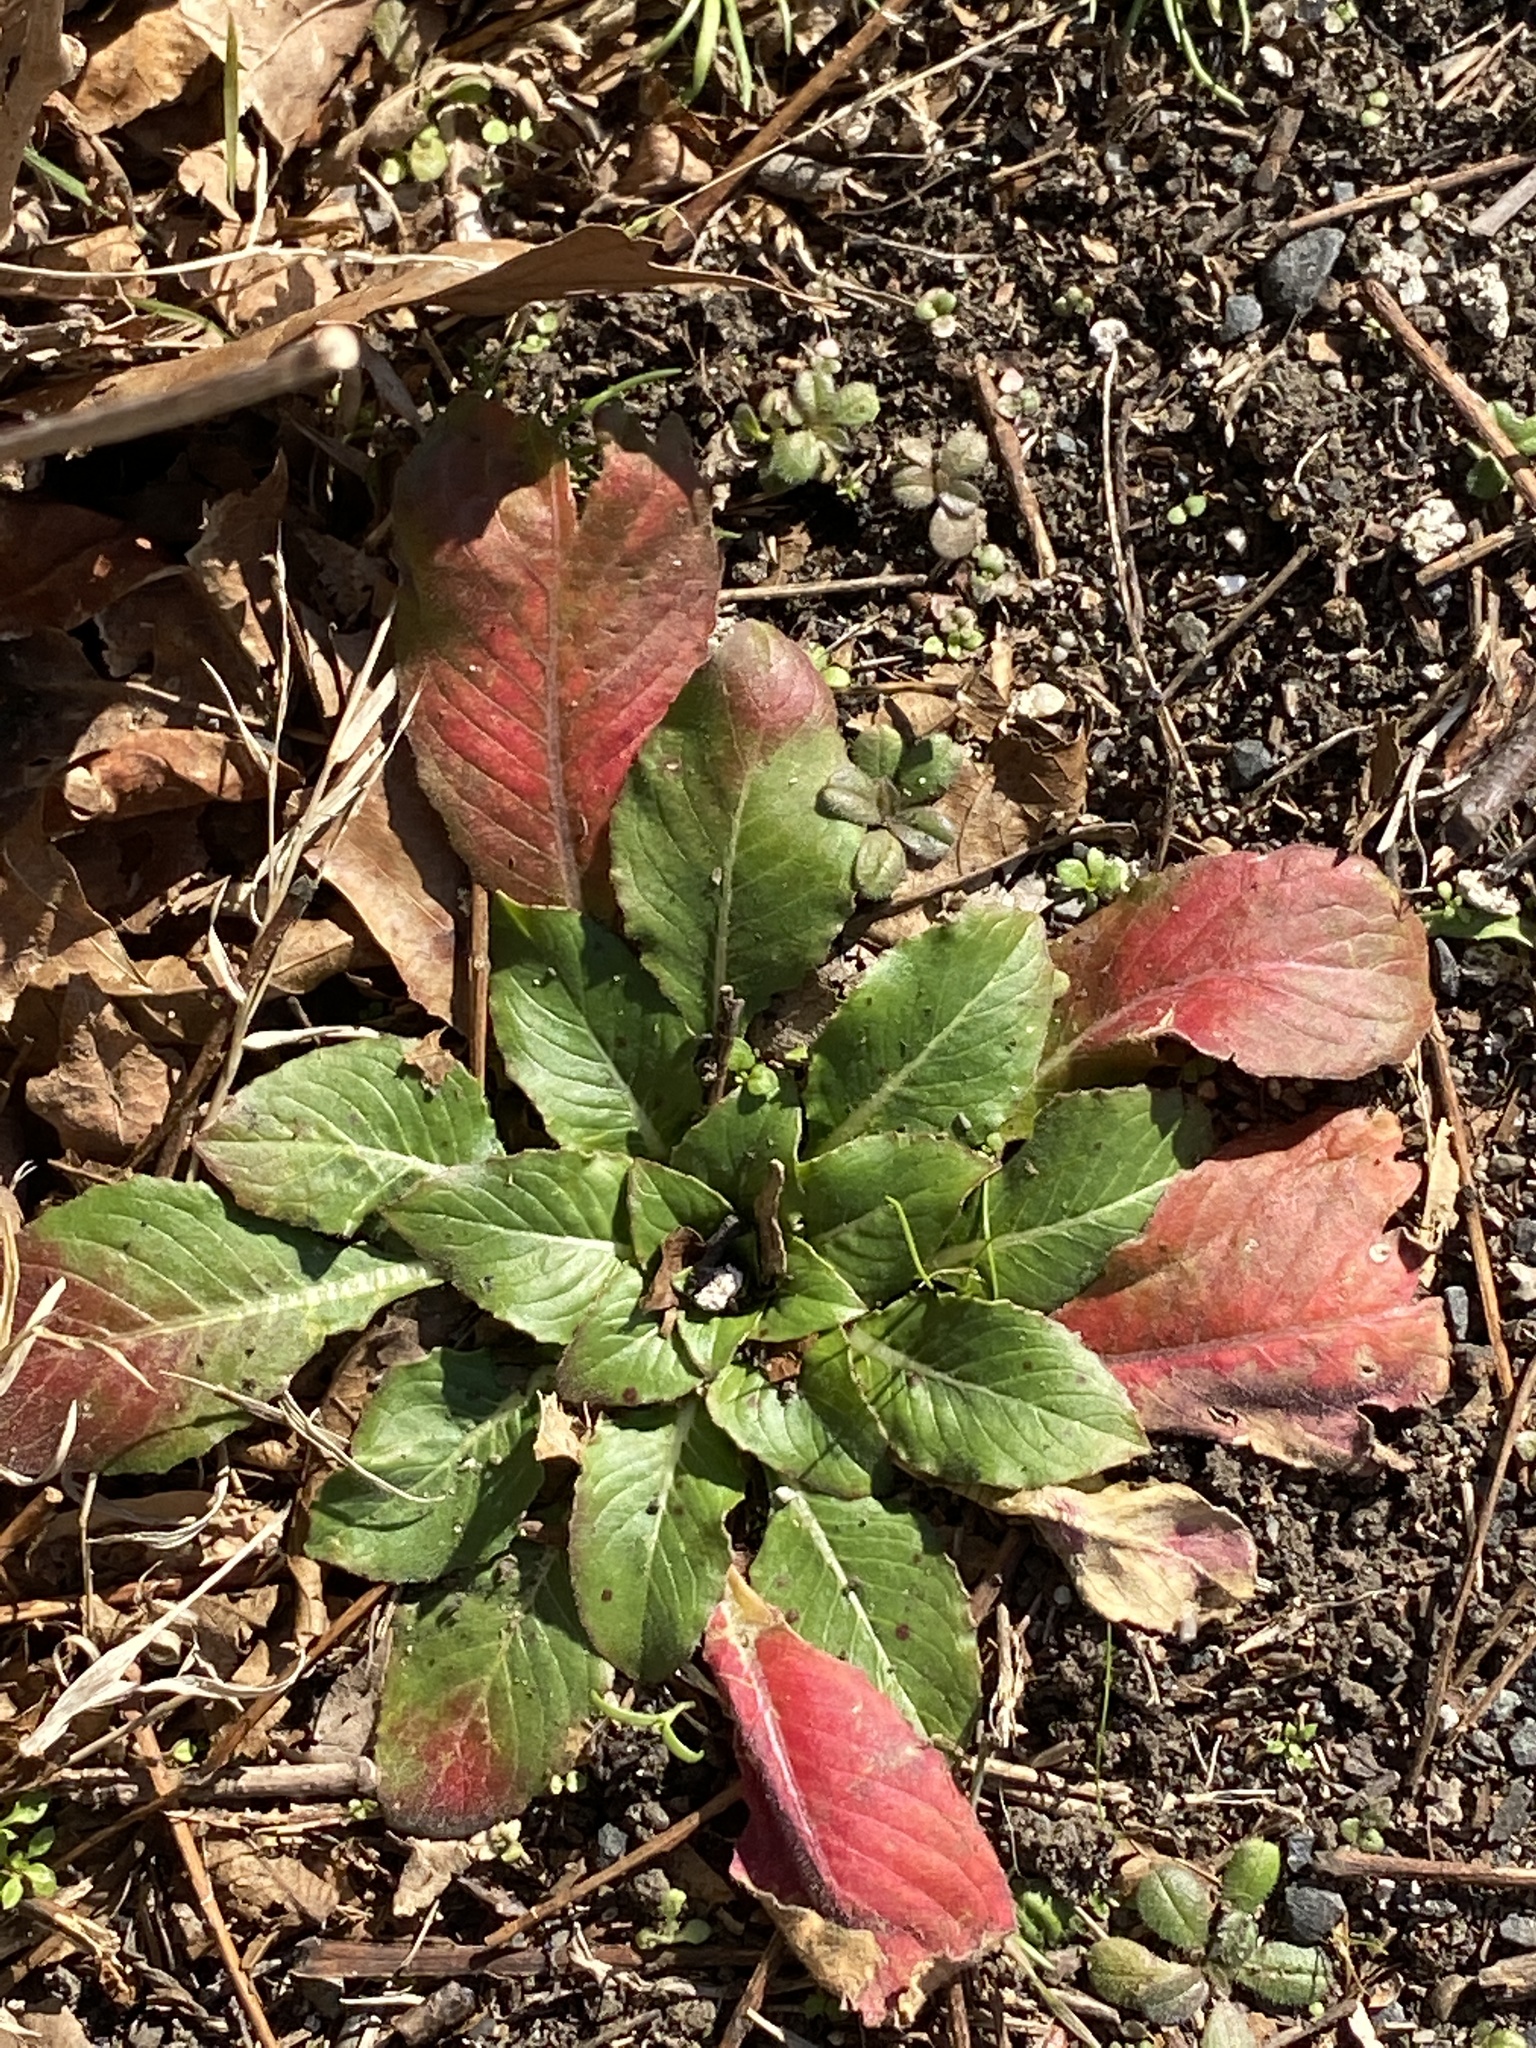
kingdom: Plantae
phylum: Tracheophyta
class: Magnoliopsida
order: Myrtales
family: Onagraceae
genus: Oenothera
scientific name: Oenothera biennis
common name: Common evening-primrose
